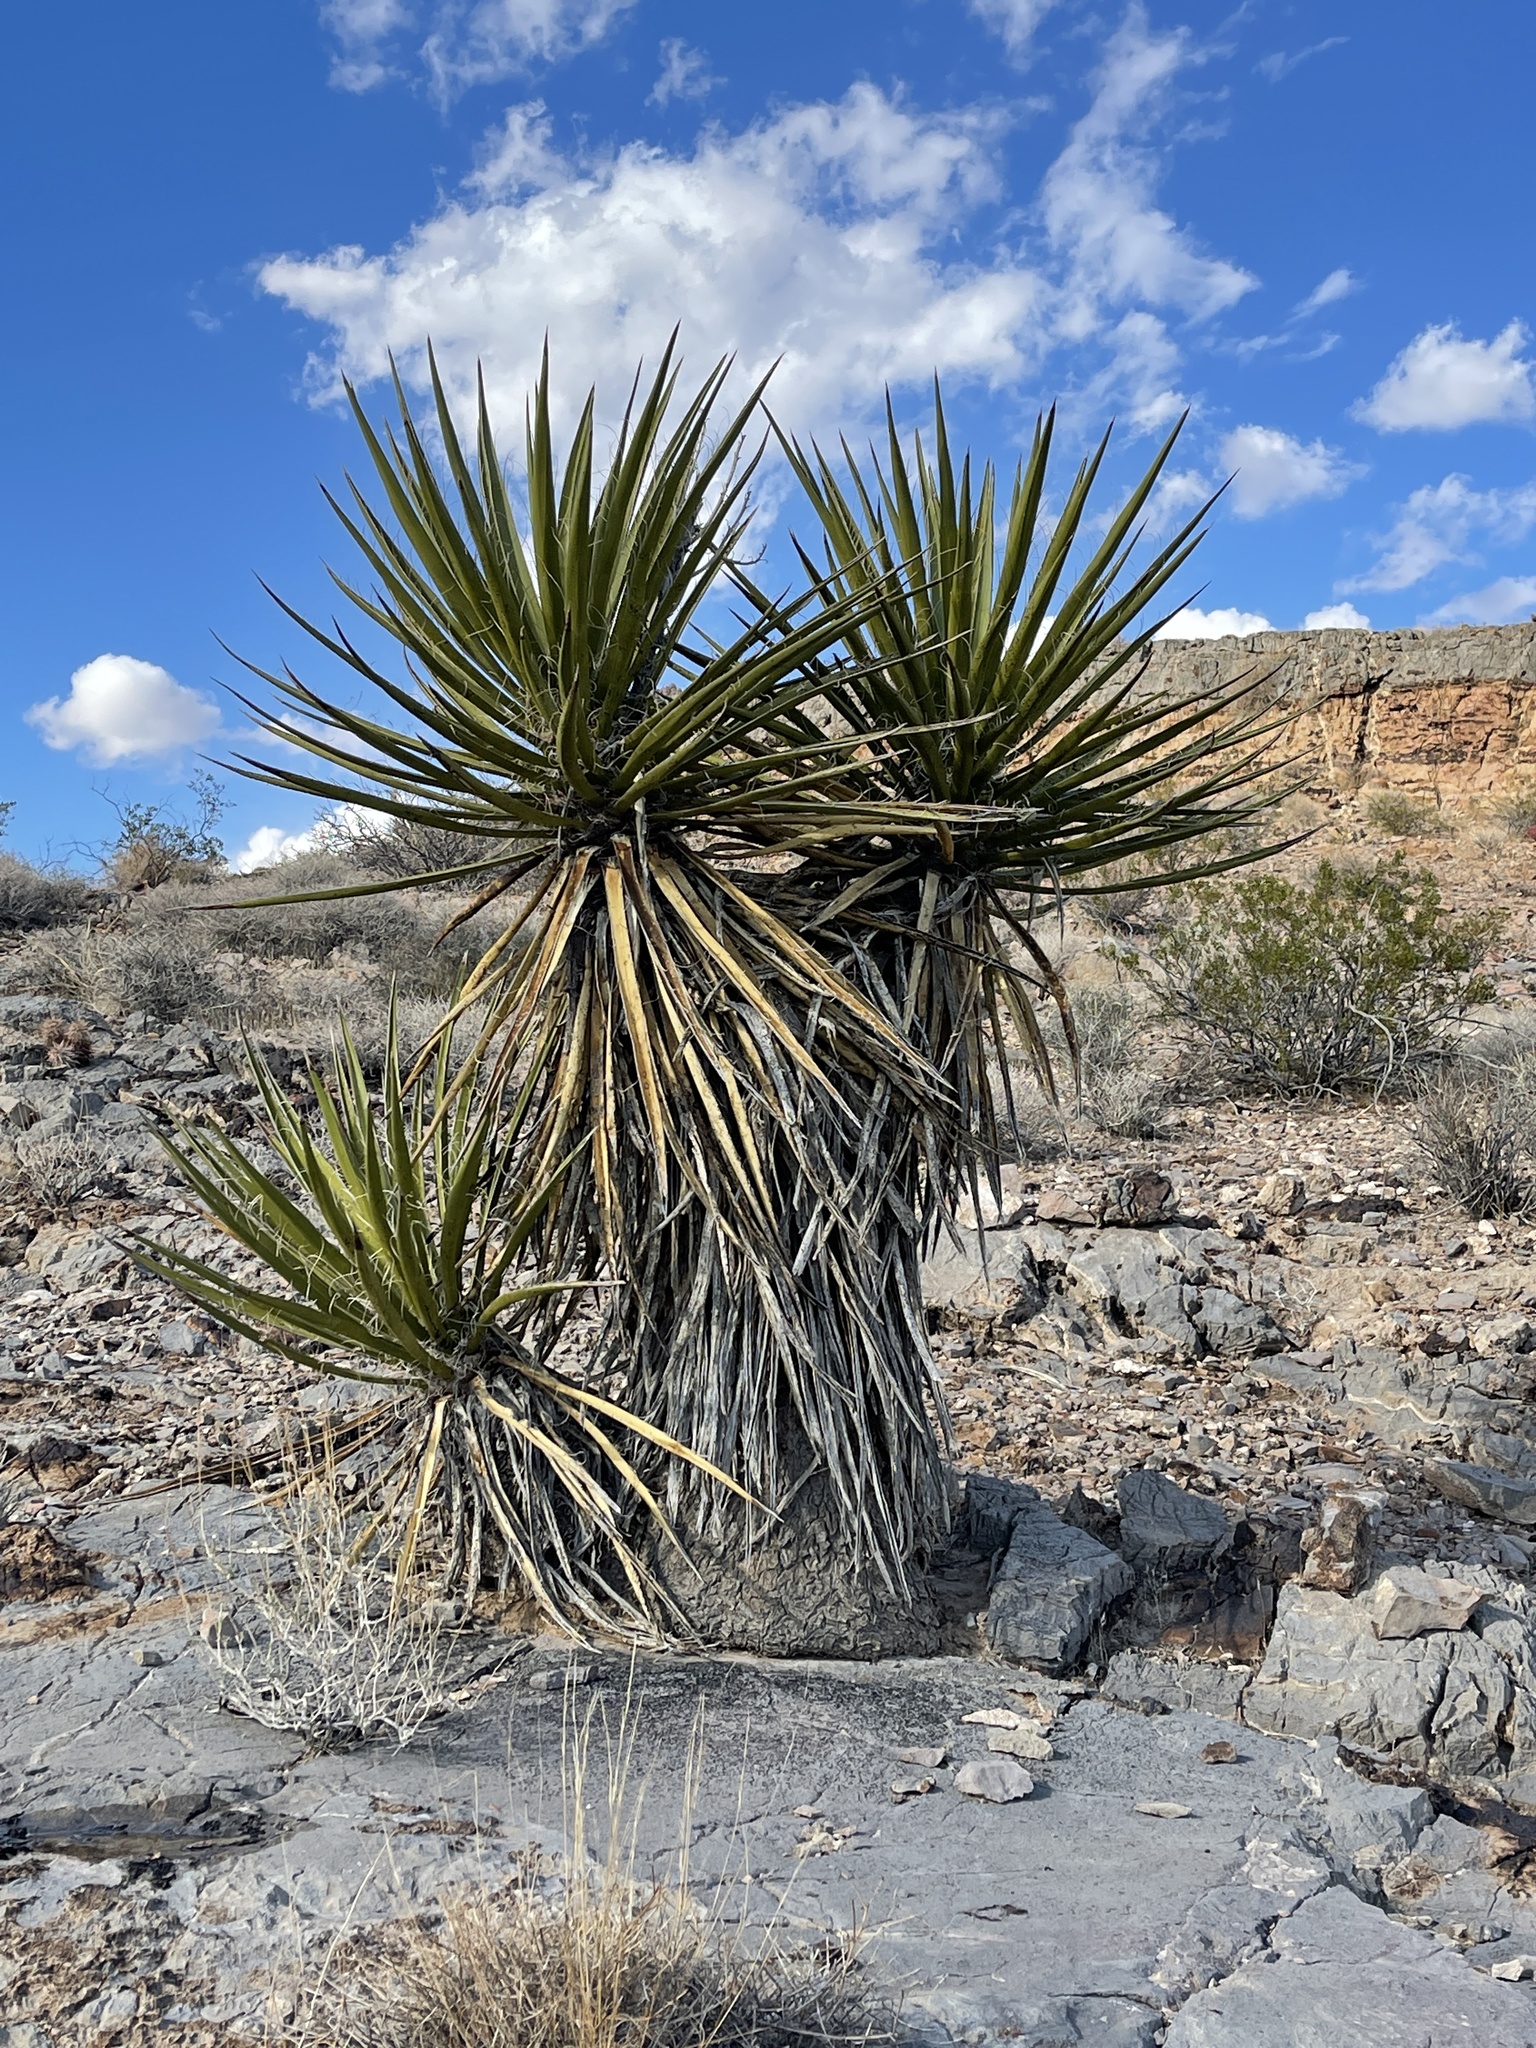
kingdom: Plantae
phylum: Tracheophyta
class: Liliopsida
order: Asparagales
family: Asparagaceae
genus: Yucca
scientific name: Yucca schidigera
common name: Mojave yucca
